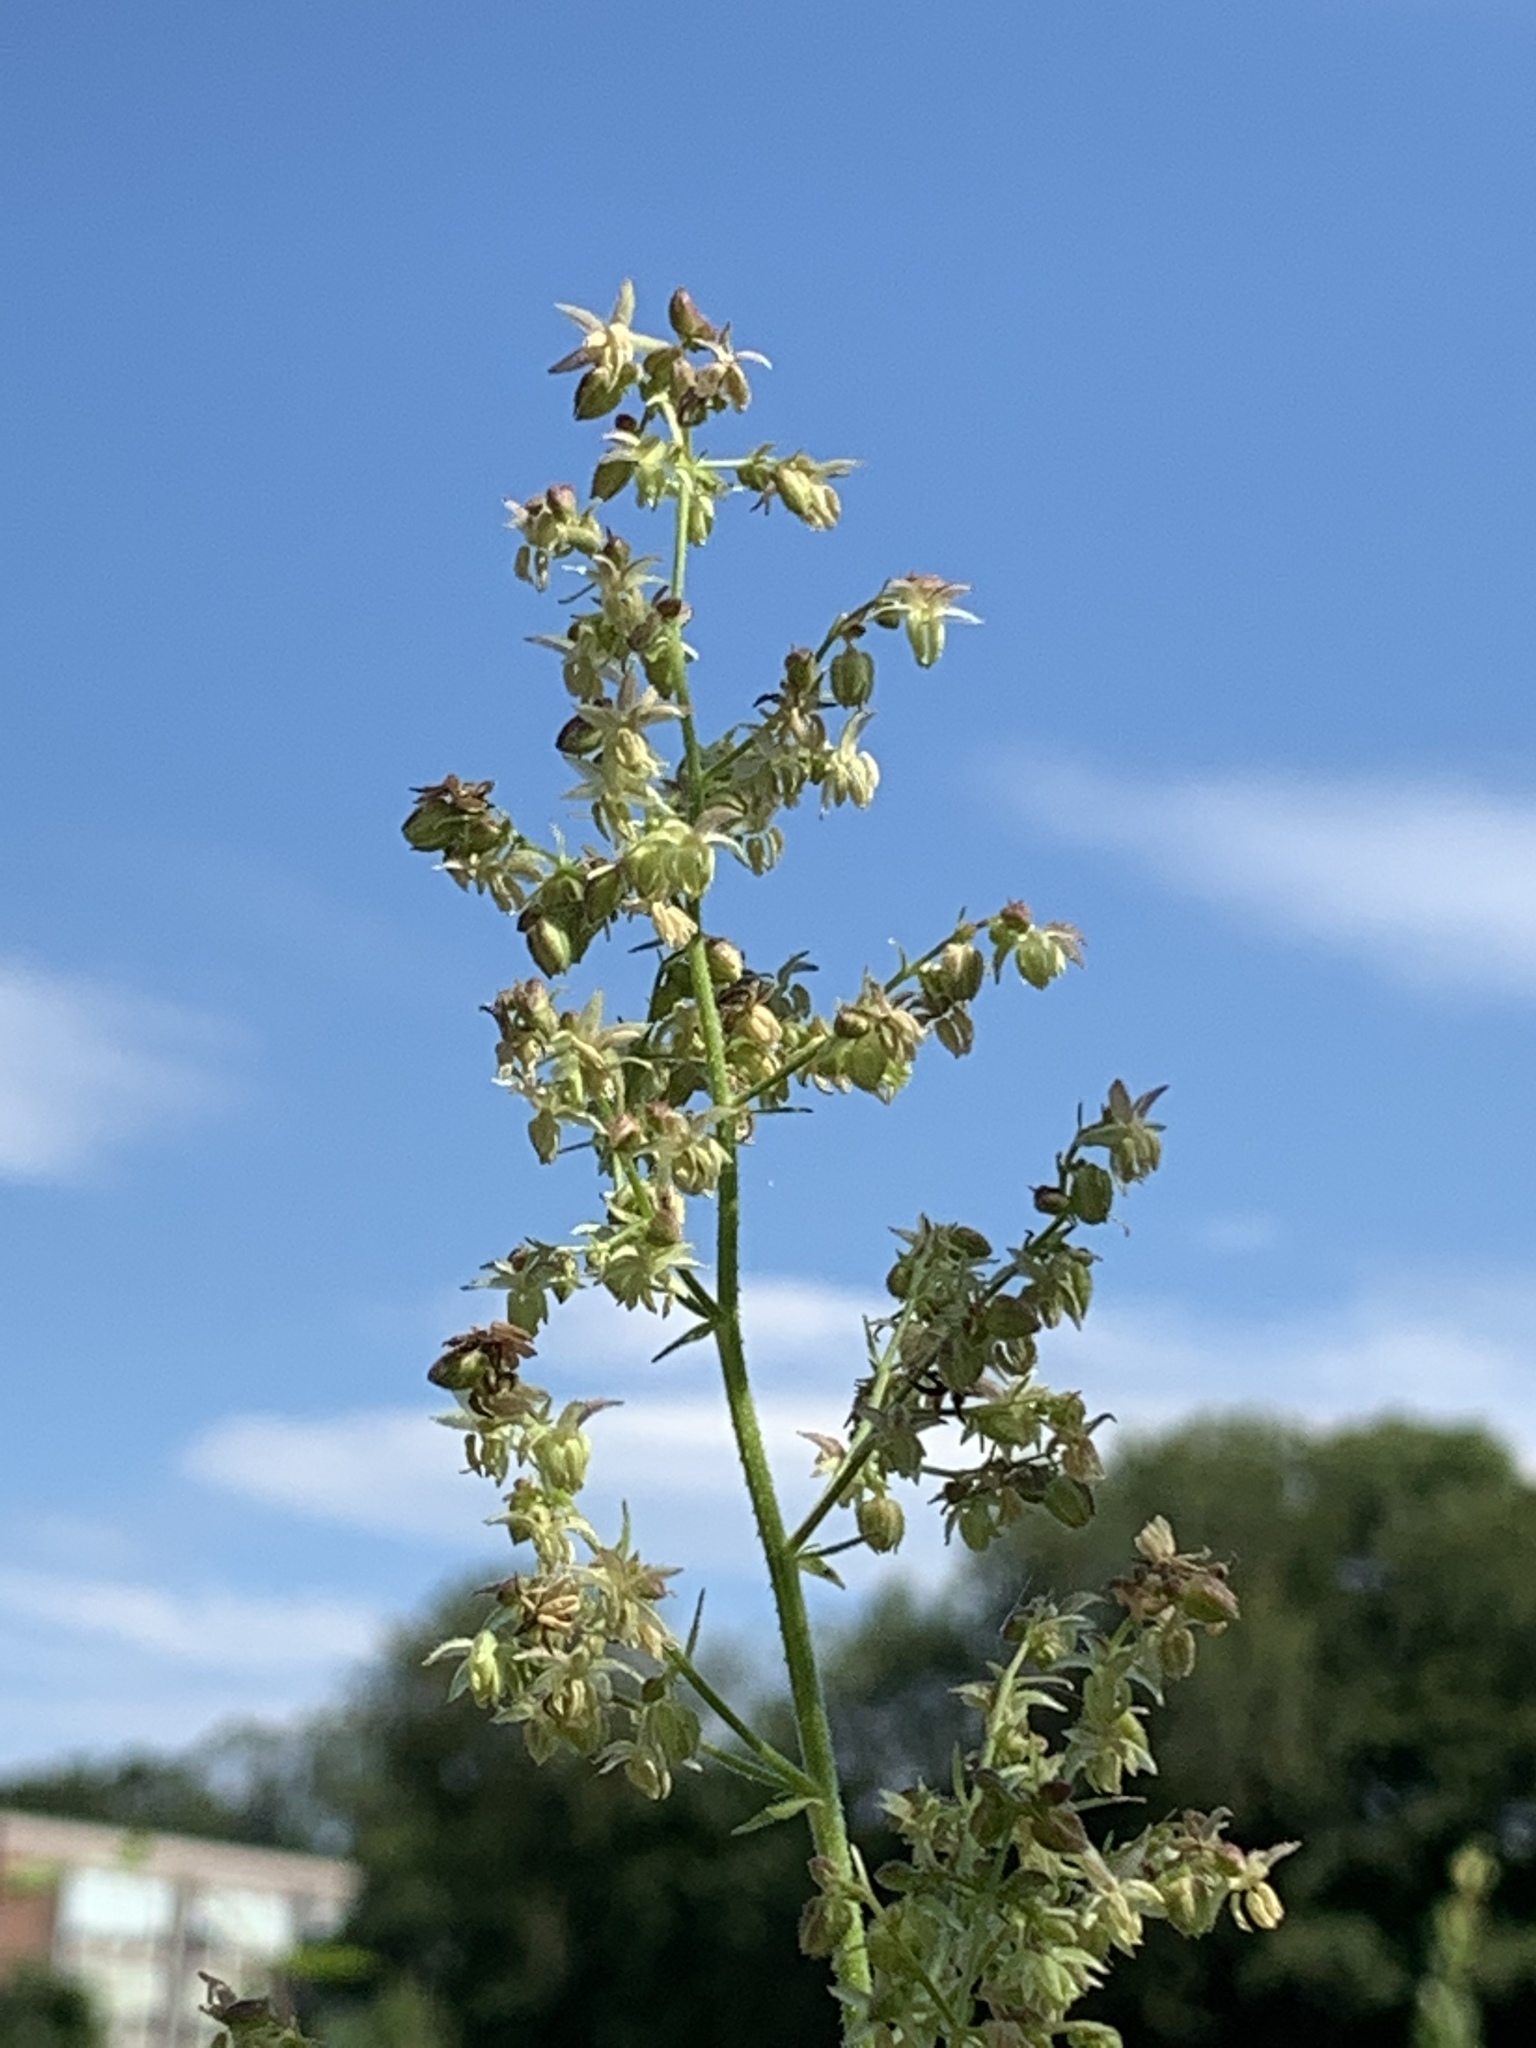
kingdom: Plantae
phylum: Tracheophyta
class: Magnoliopsida
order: Rosales
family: Cannabaceae
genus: Humulus
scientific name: Humulus scandens
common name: Japanese hop
